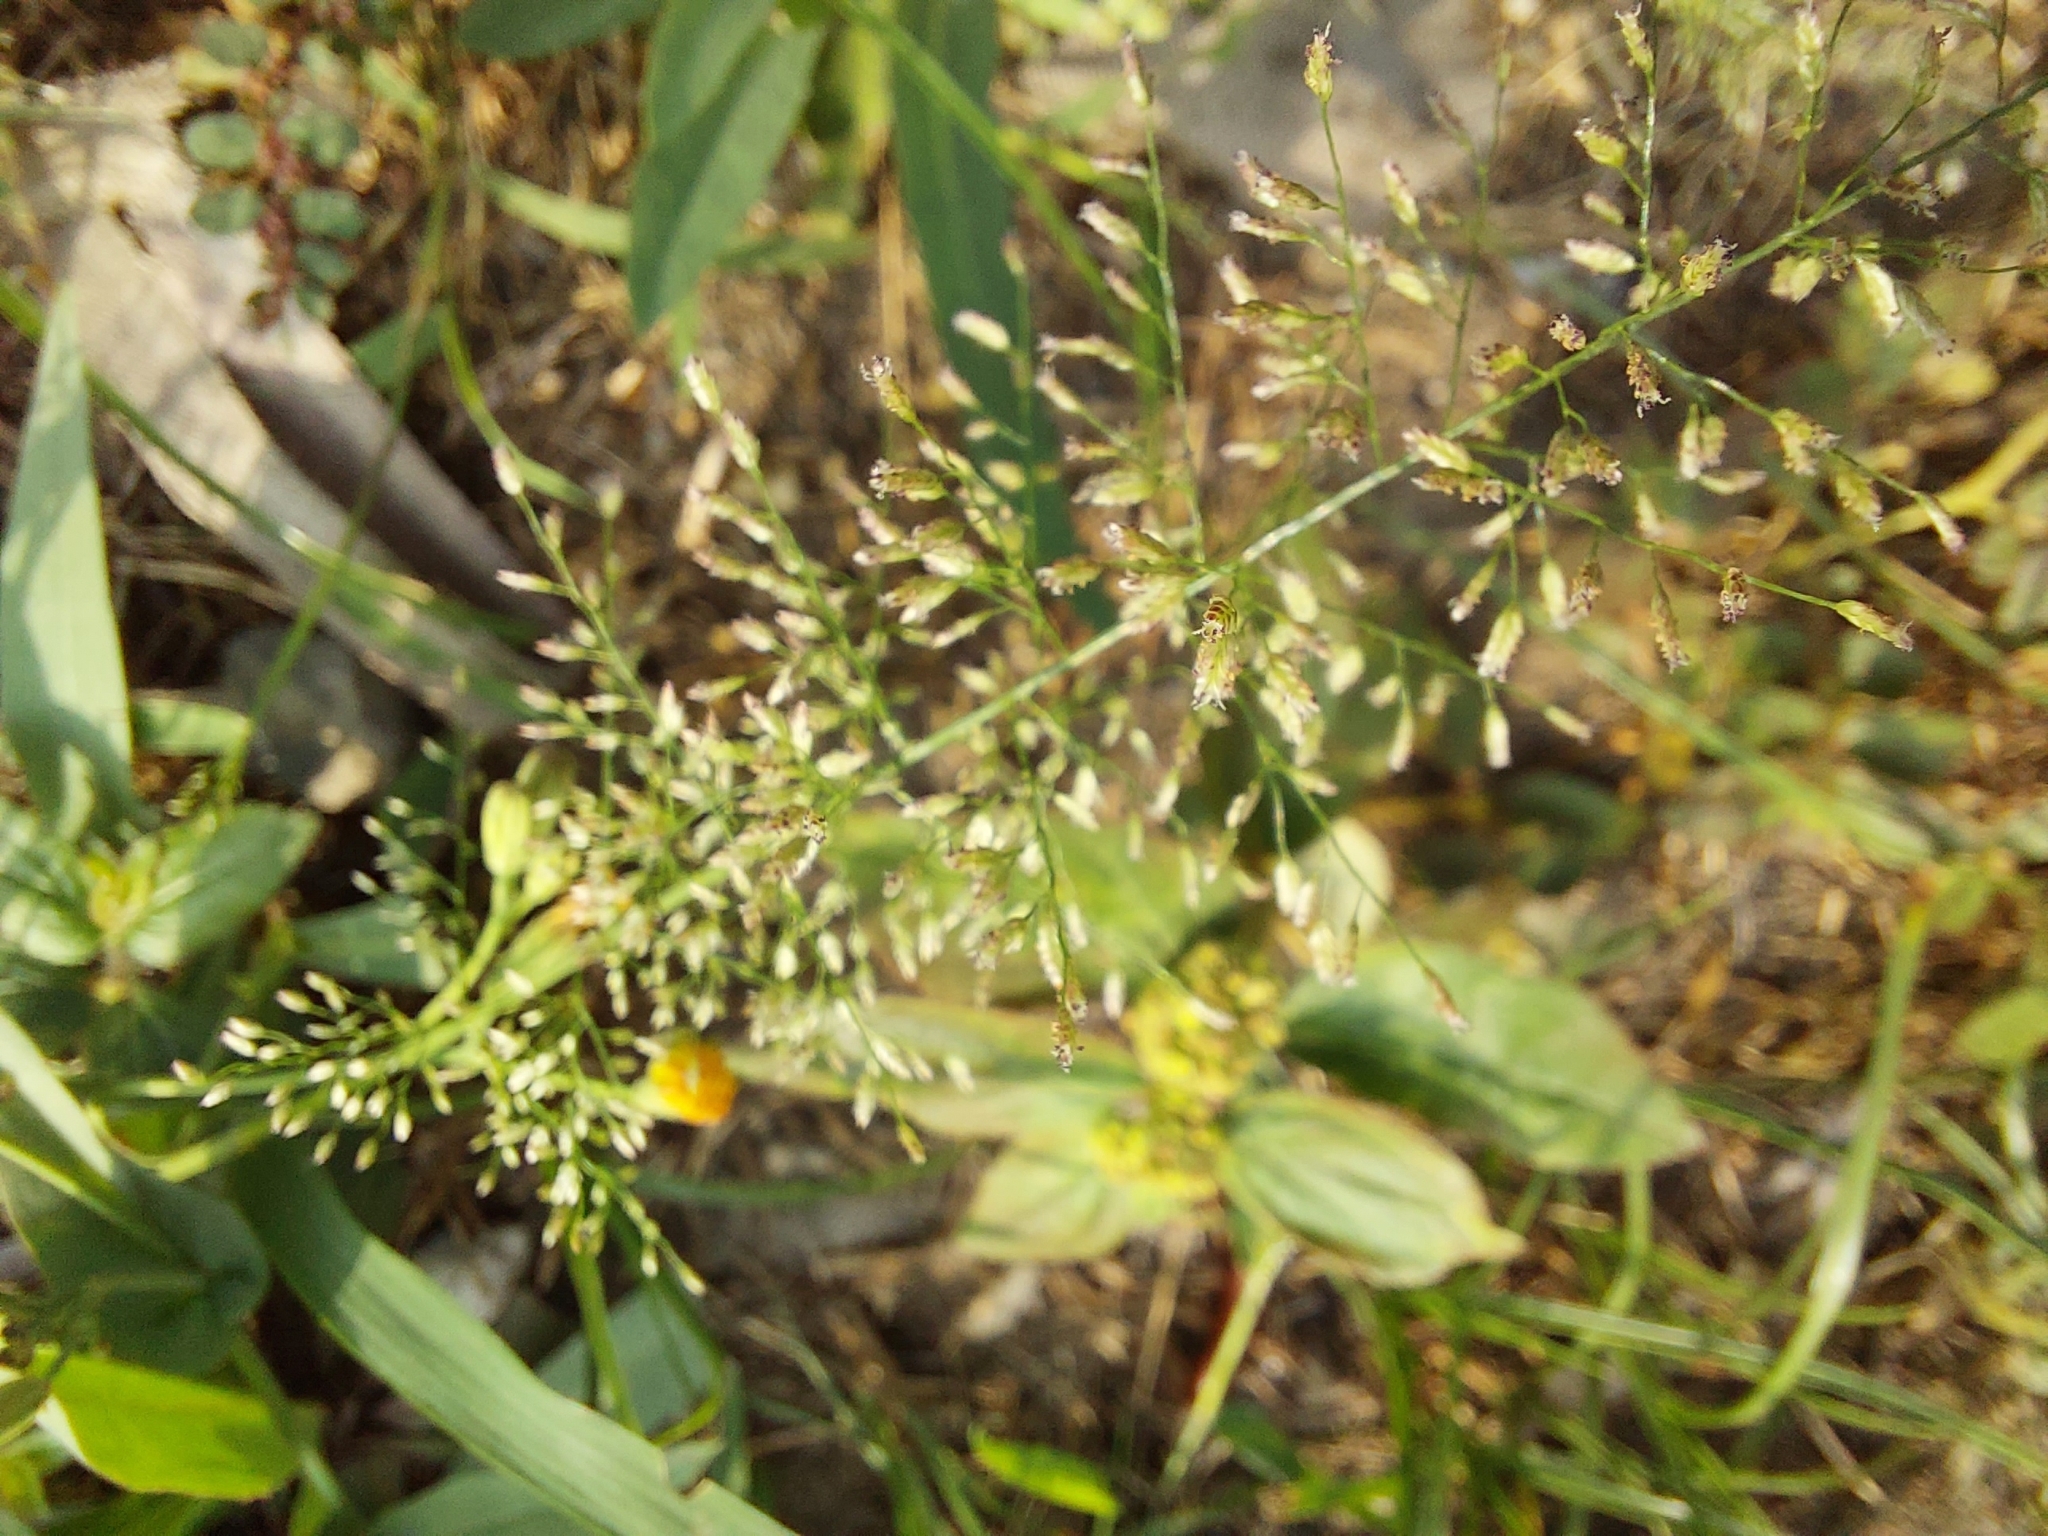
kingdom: Plantae
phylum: Tracheophyta
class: Liliopsida
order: Poales
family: Poaceae
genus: Eragrostis
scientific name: Eragrostis tenella
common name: Japanese lovegrass
